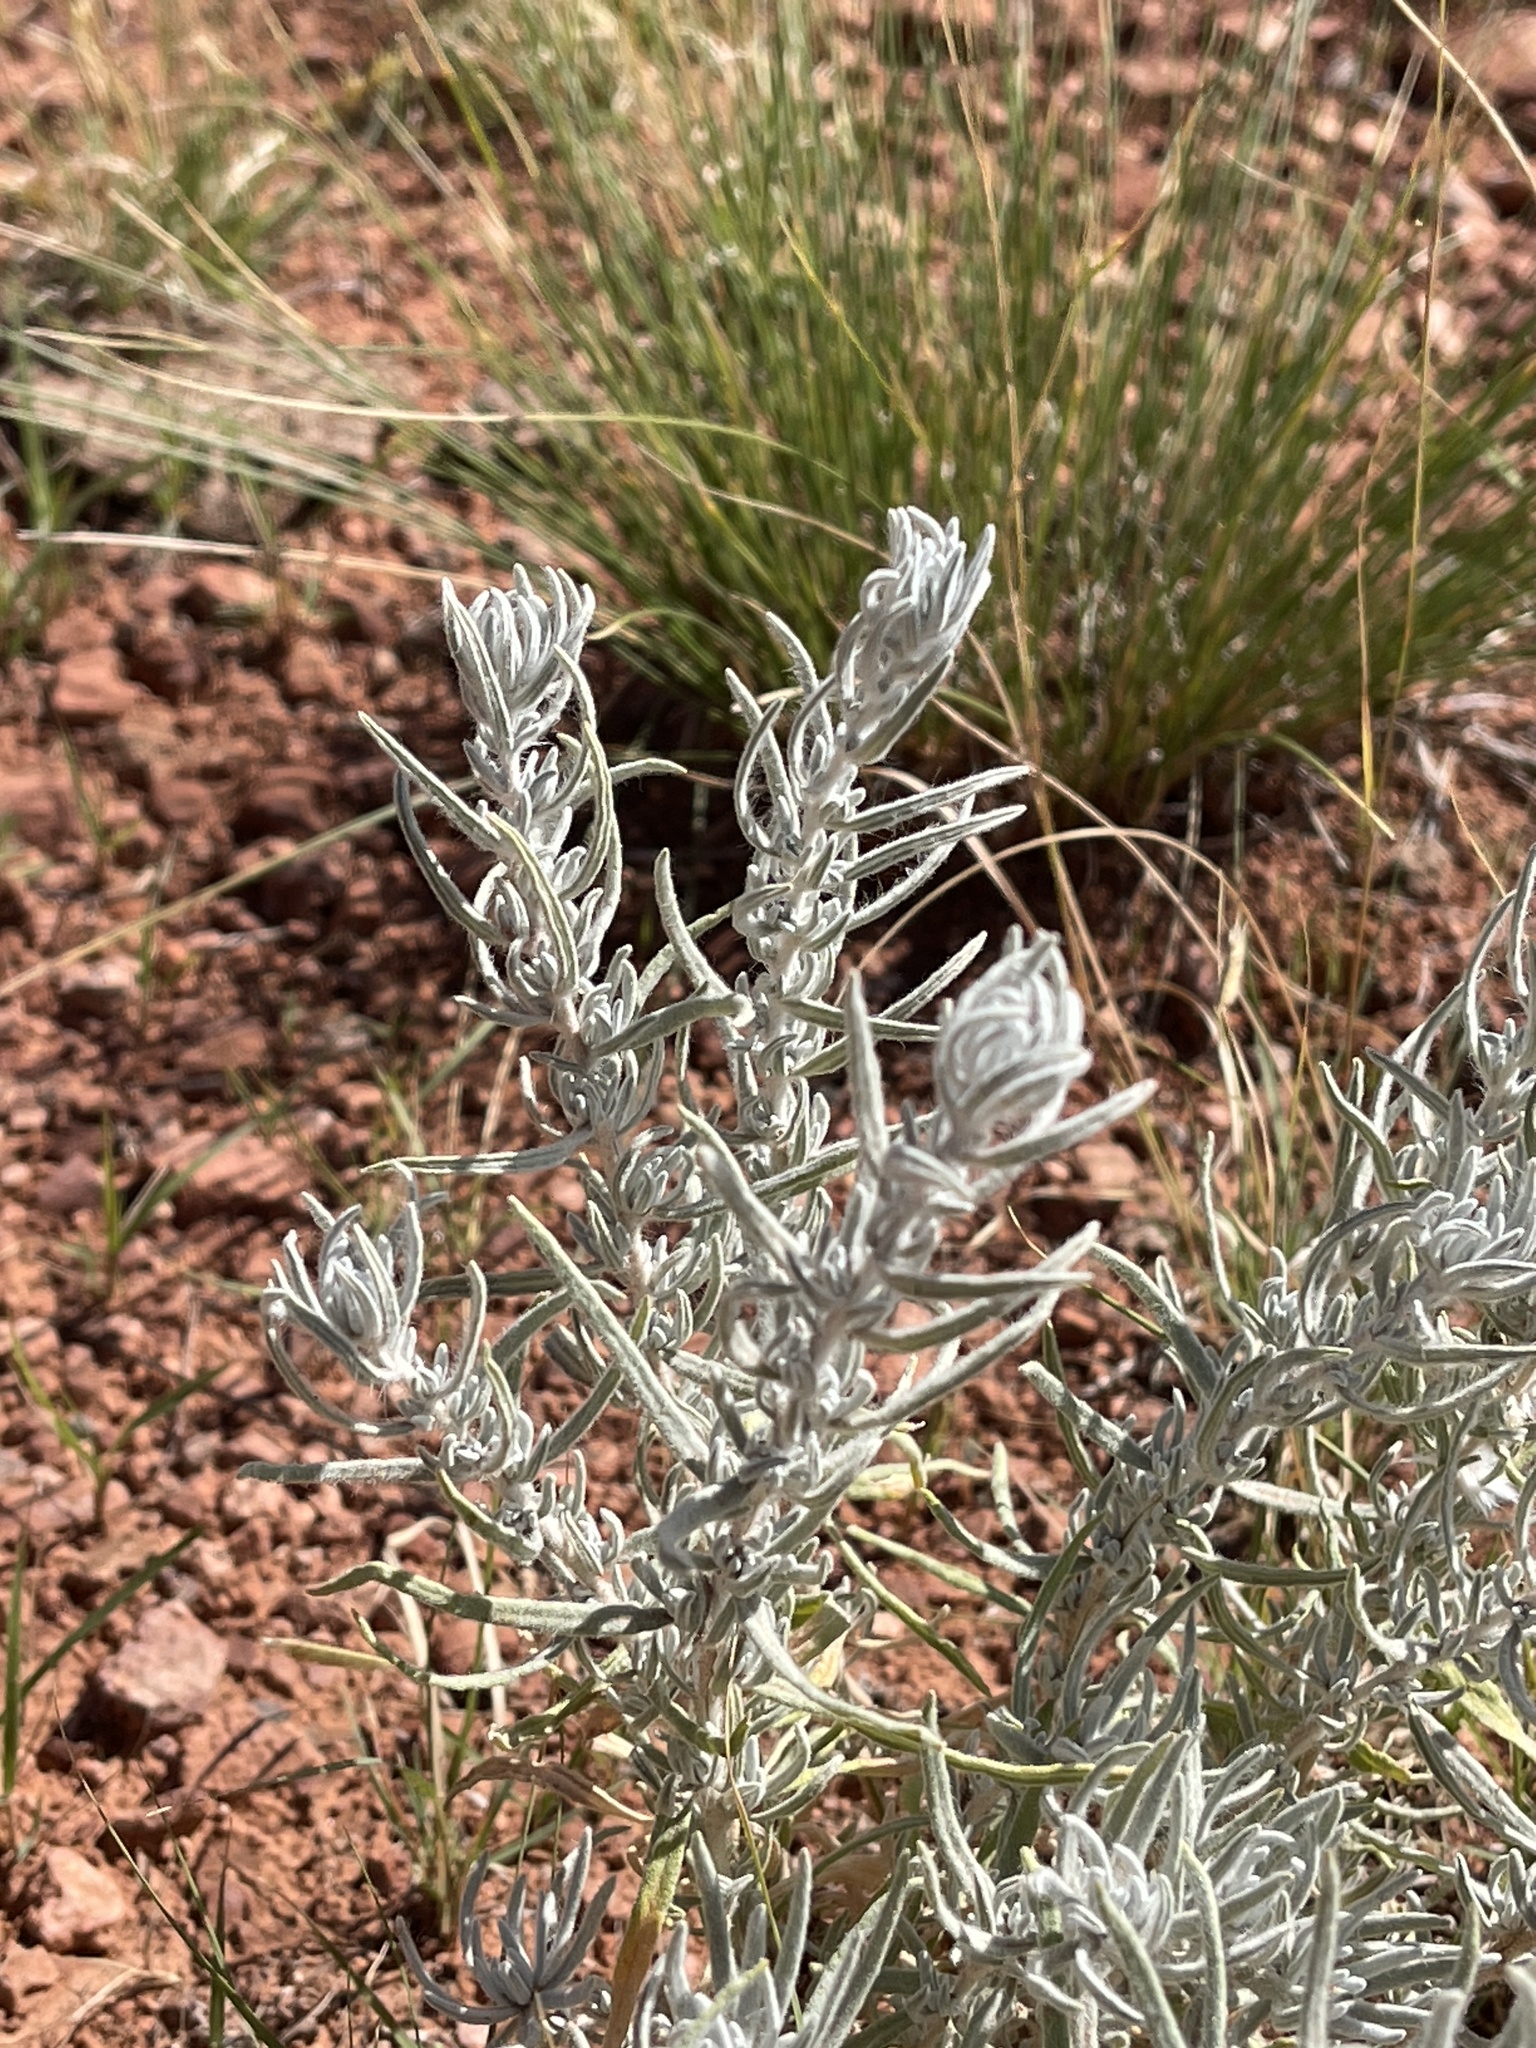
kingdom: Plantae
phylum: Tracheophyta
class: Magnoliopsida
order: Caryophyllales
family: Amaranthaceae
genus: Krascheninnikovia
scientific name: Krascheninnikovia lanata
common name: Winterfat
